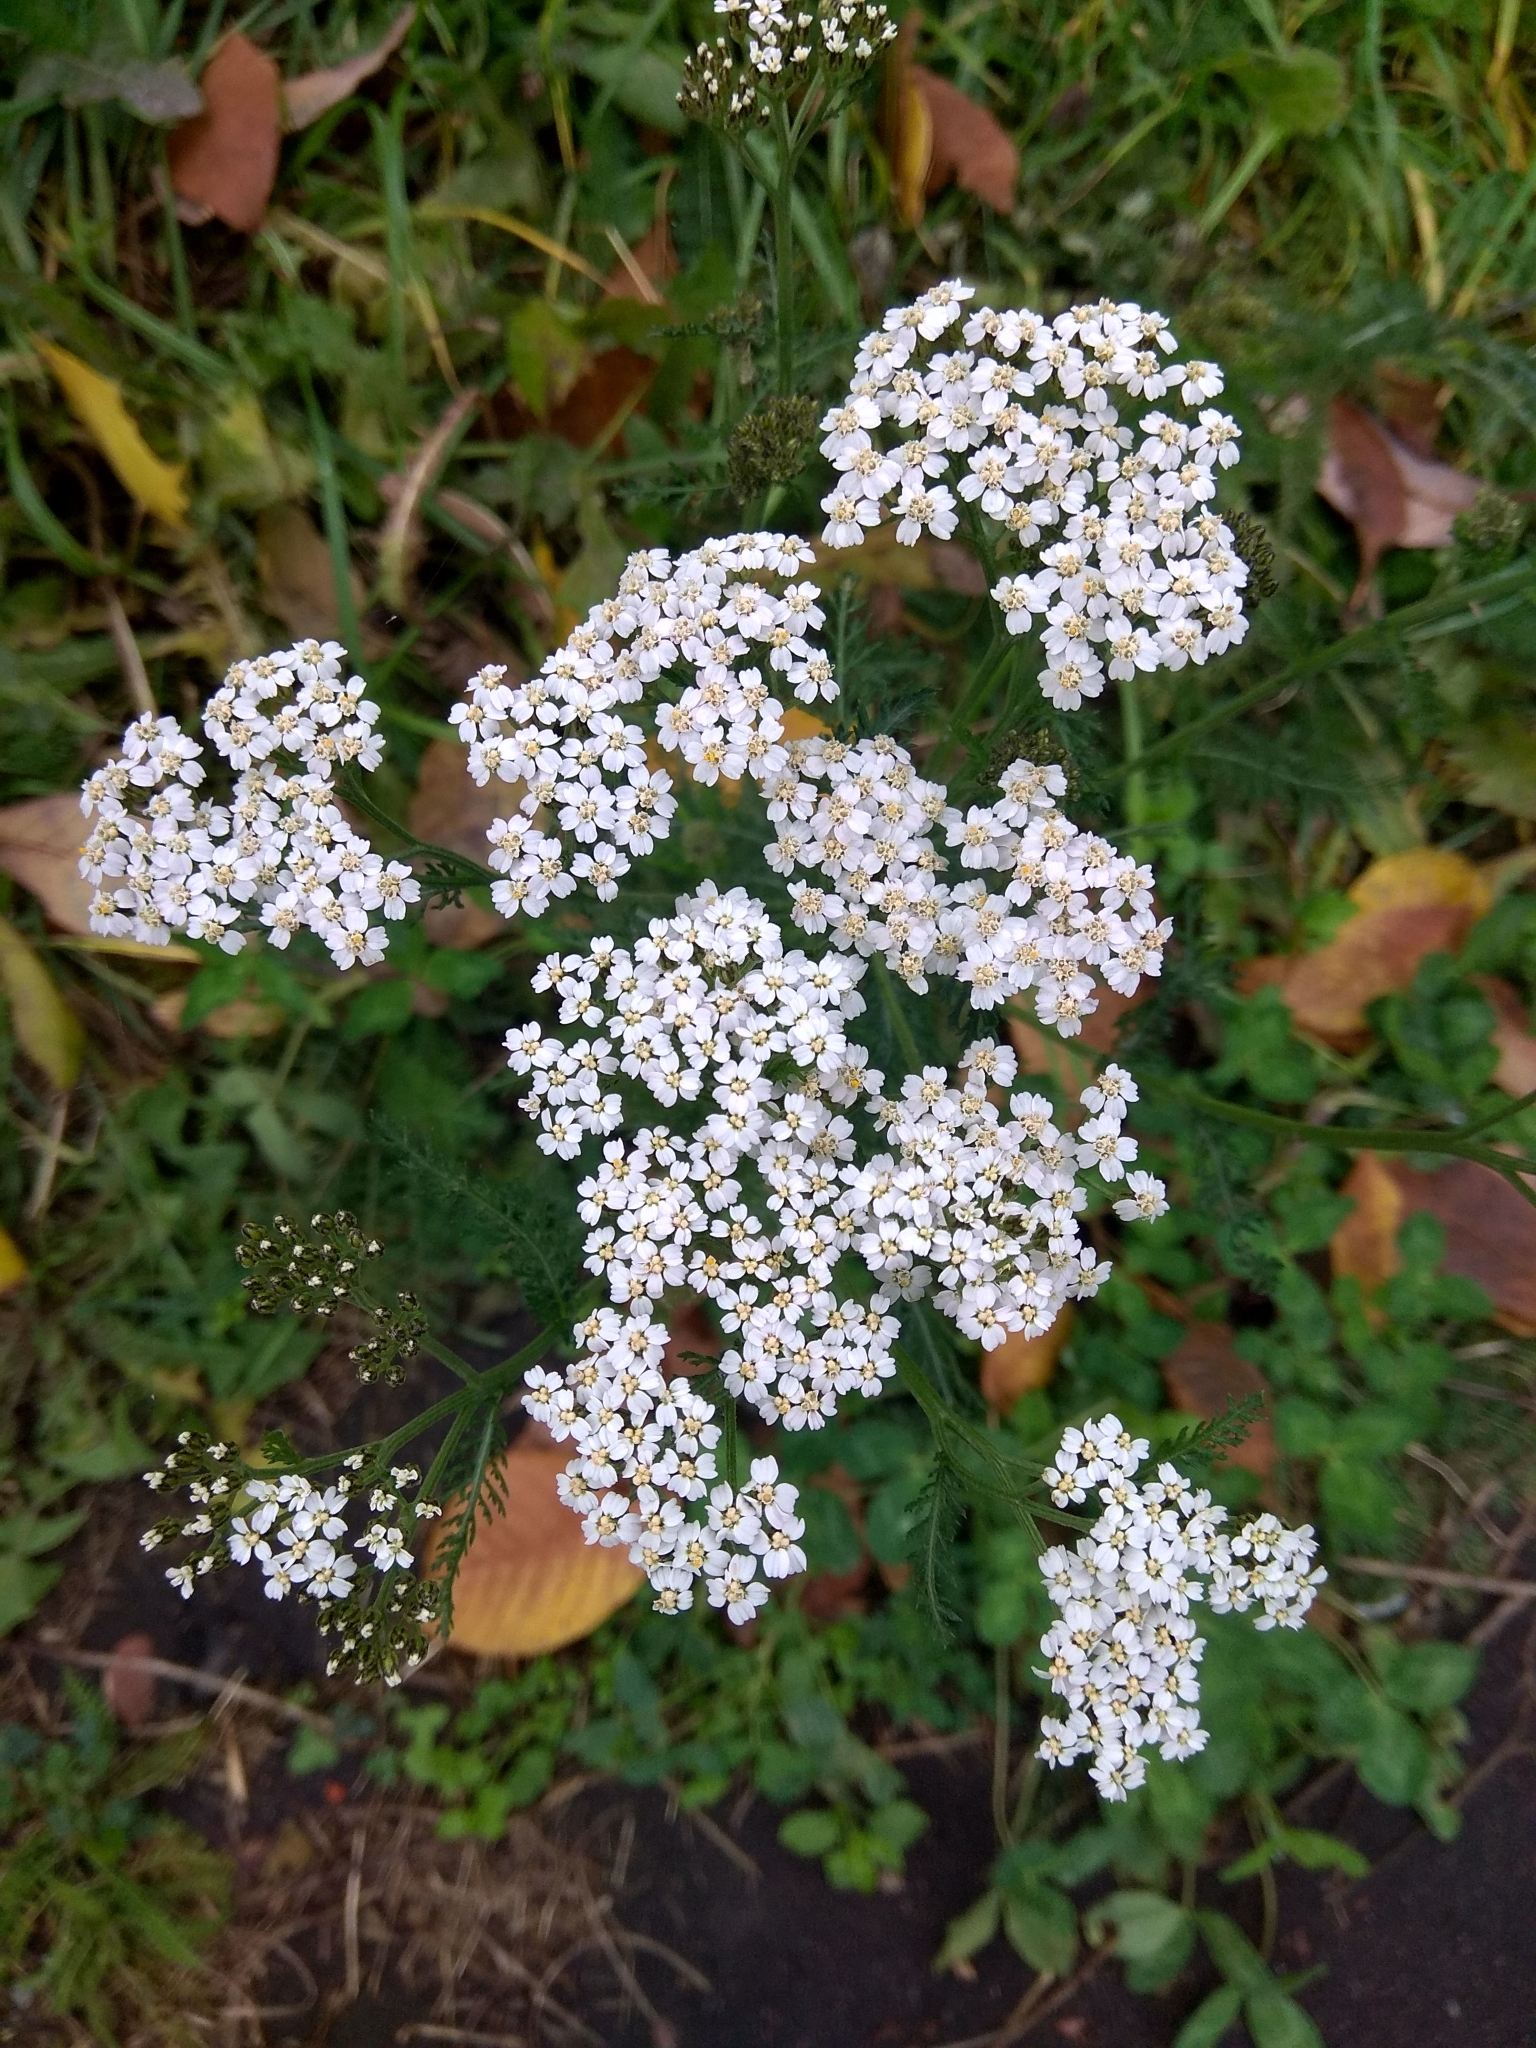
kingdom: Plantae
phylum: Tracheophyta
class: Magnoliopsida
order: Asterales
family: Asteraceae
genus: Achillea
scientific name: Achillea millefolium
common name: Yarrow
